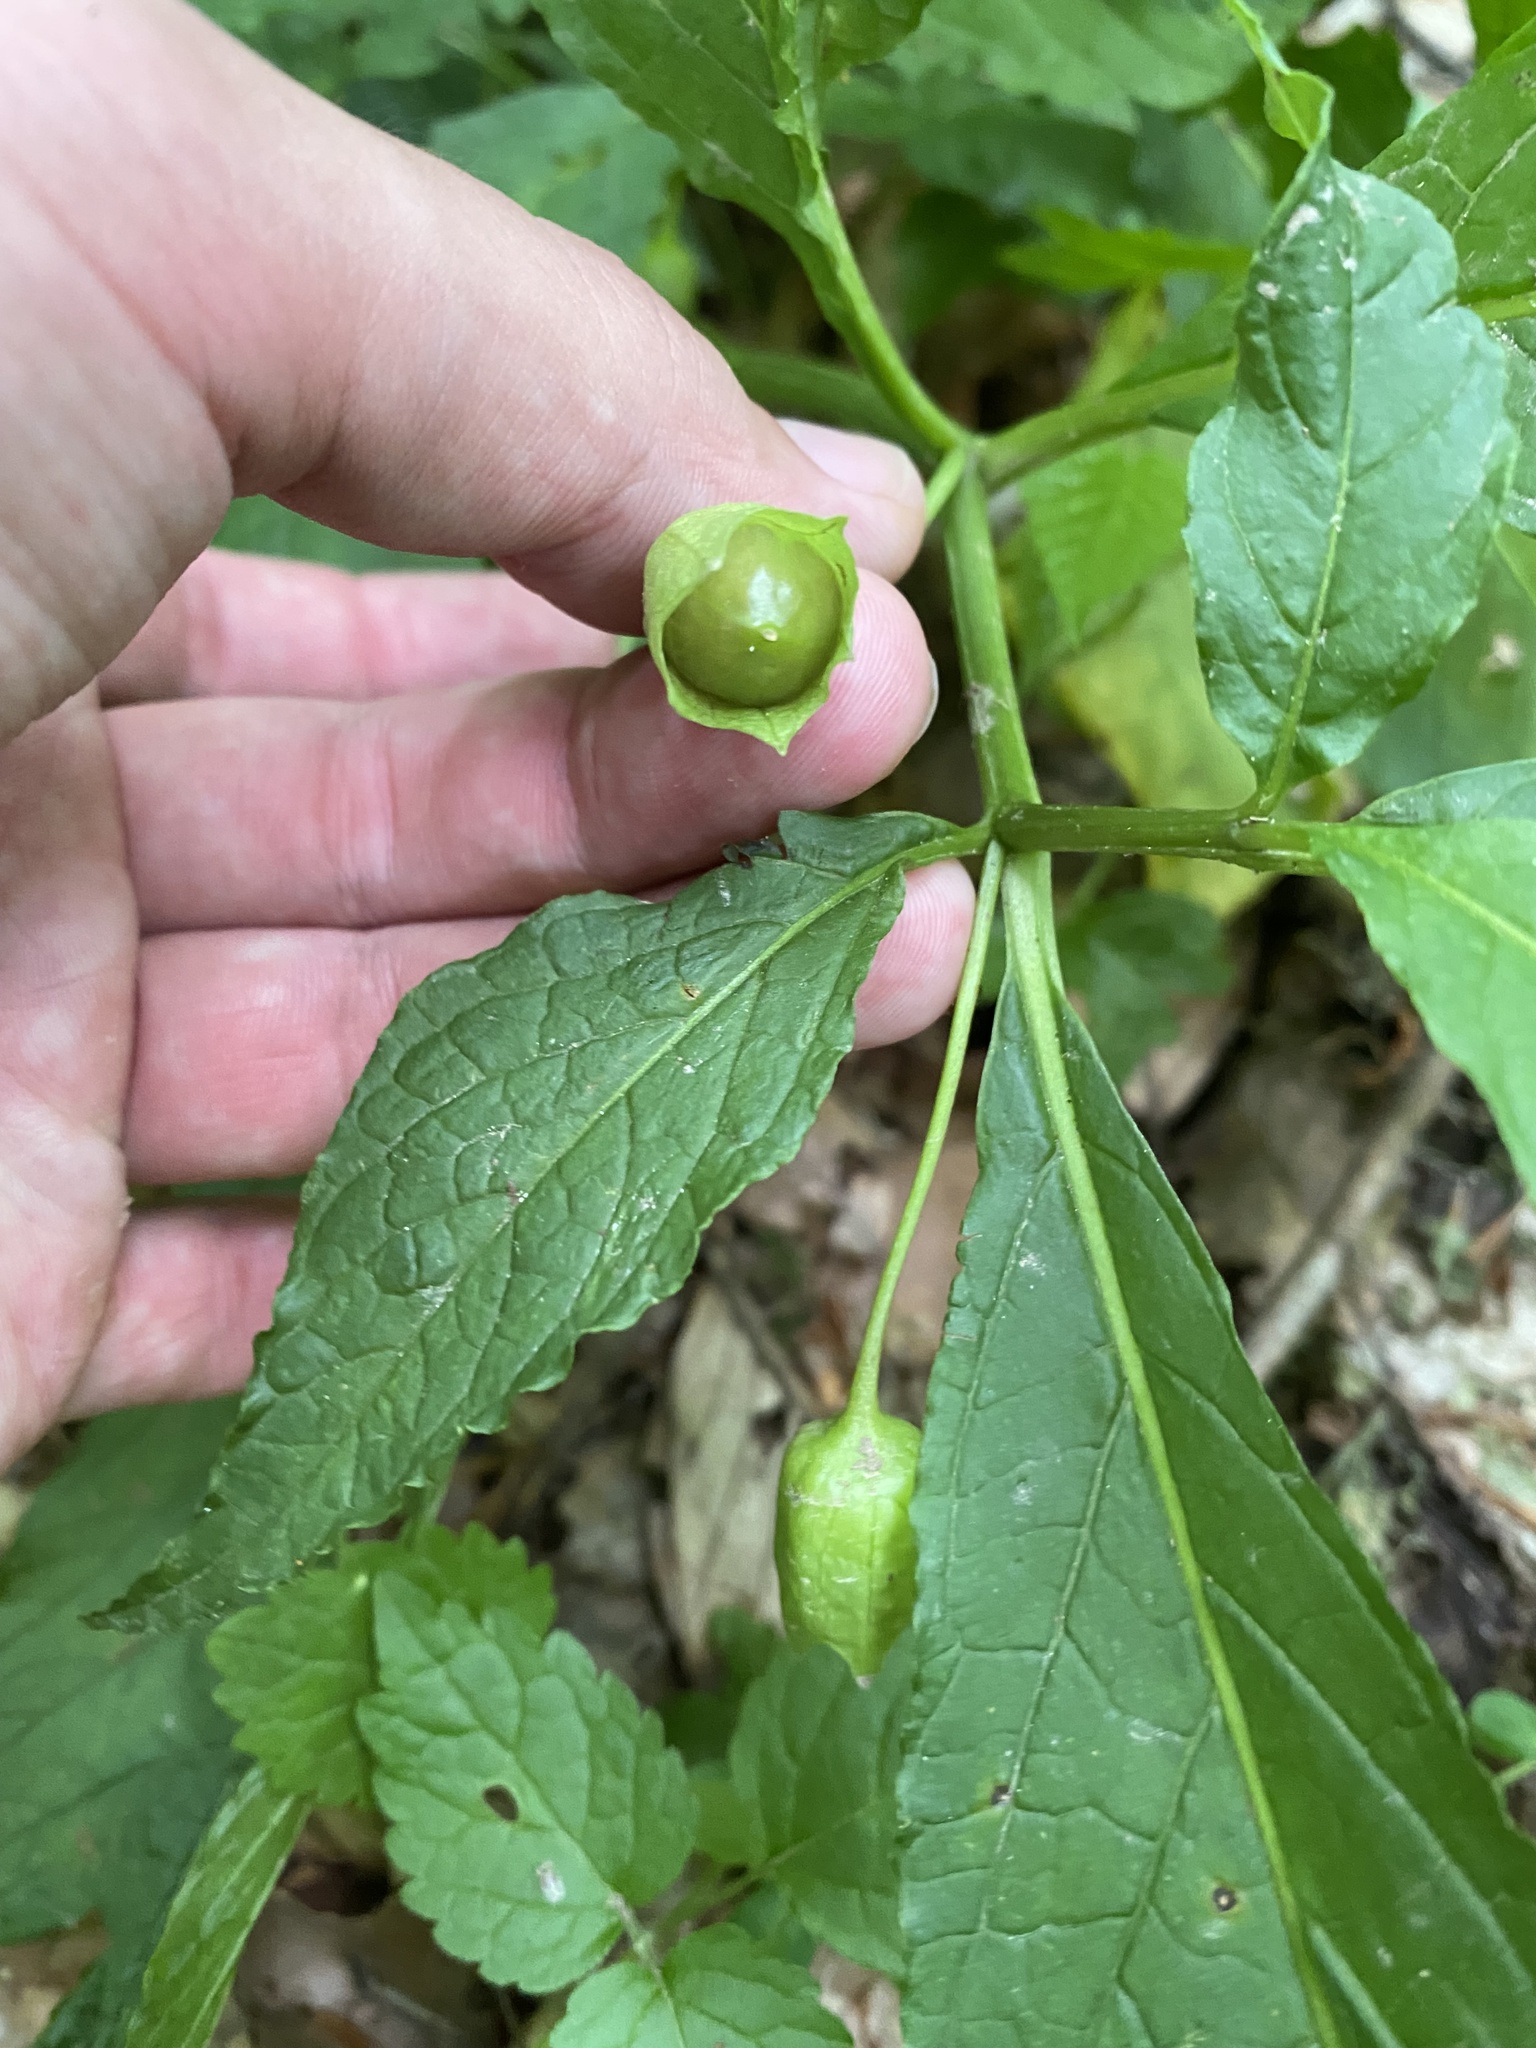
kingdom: Plantae
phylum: Tracheophyta
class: Magnoliopsida
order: Solanales
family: Solanaceae
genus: Scopolia
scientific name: Scopolia carniolica
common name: Scopolia
